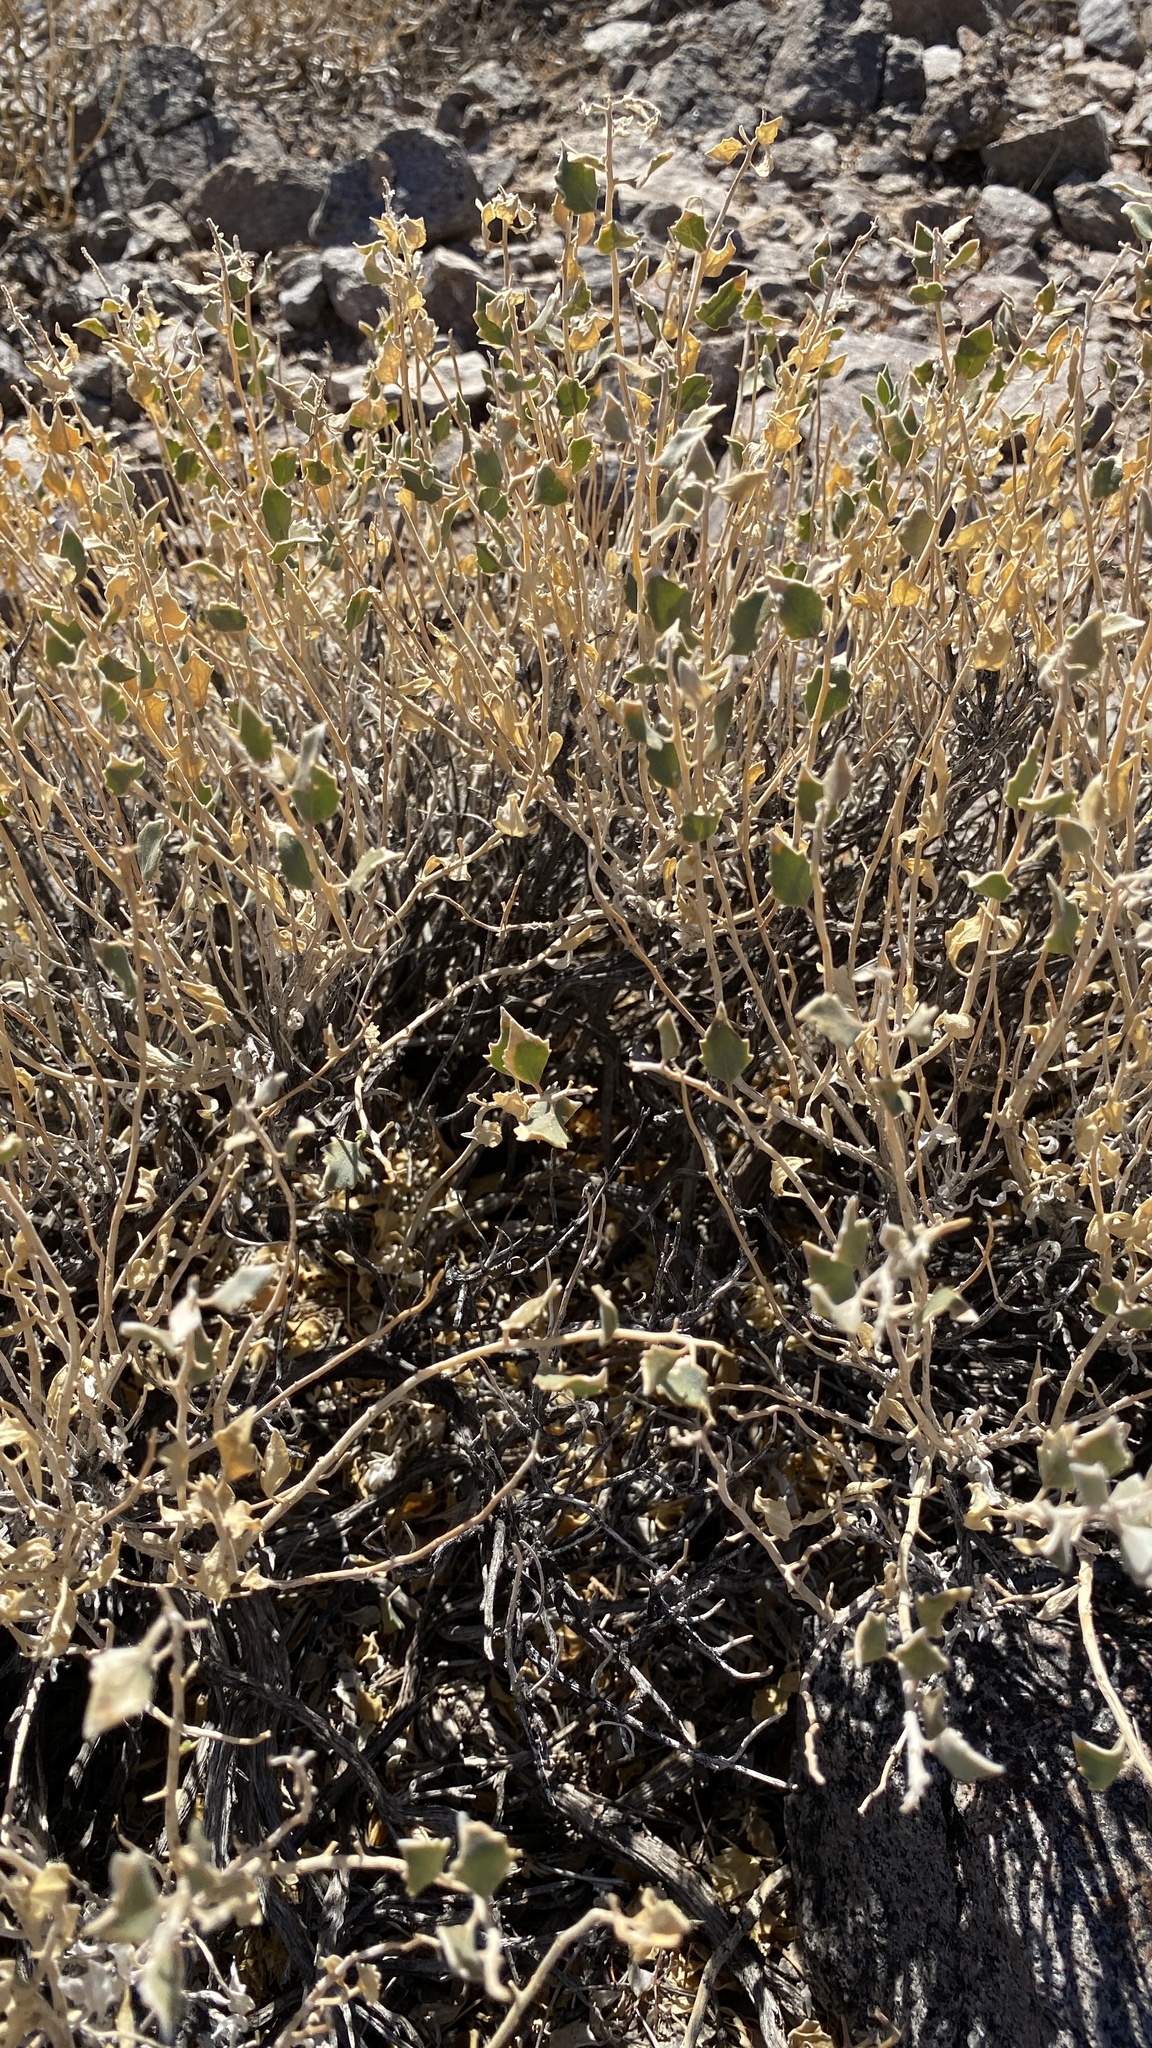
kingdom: Plantae
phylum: Tracheophyta
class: Magnoliopsida
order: Cornales
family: Loasaceae
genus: Petalonyx
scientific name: Petalonyx nitidus
